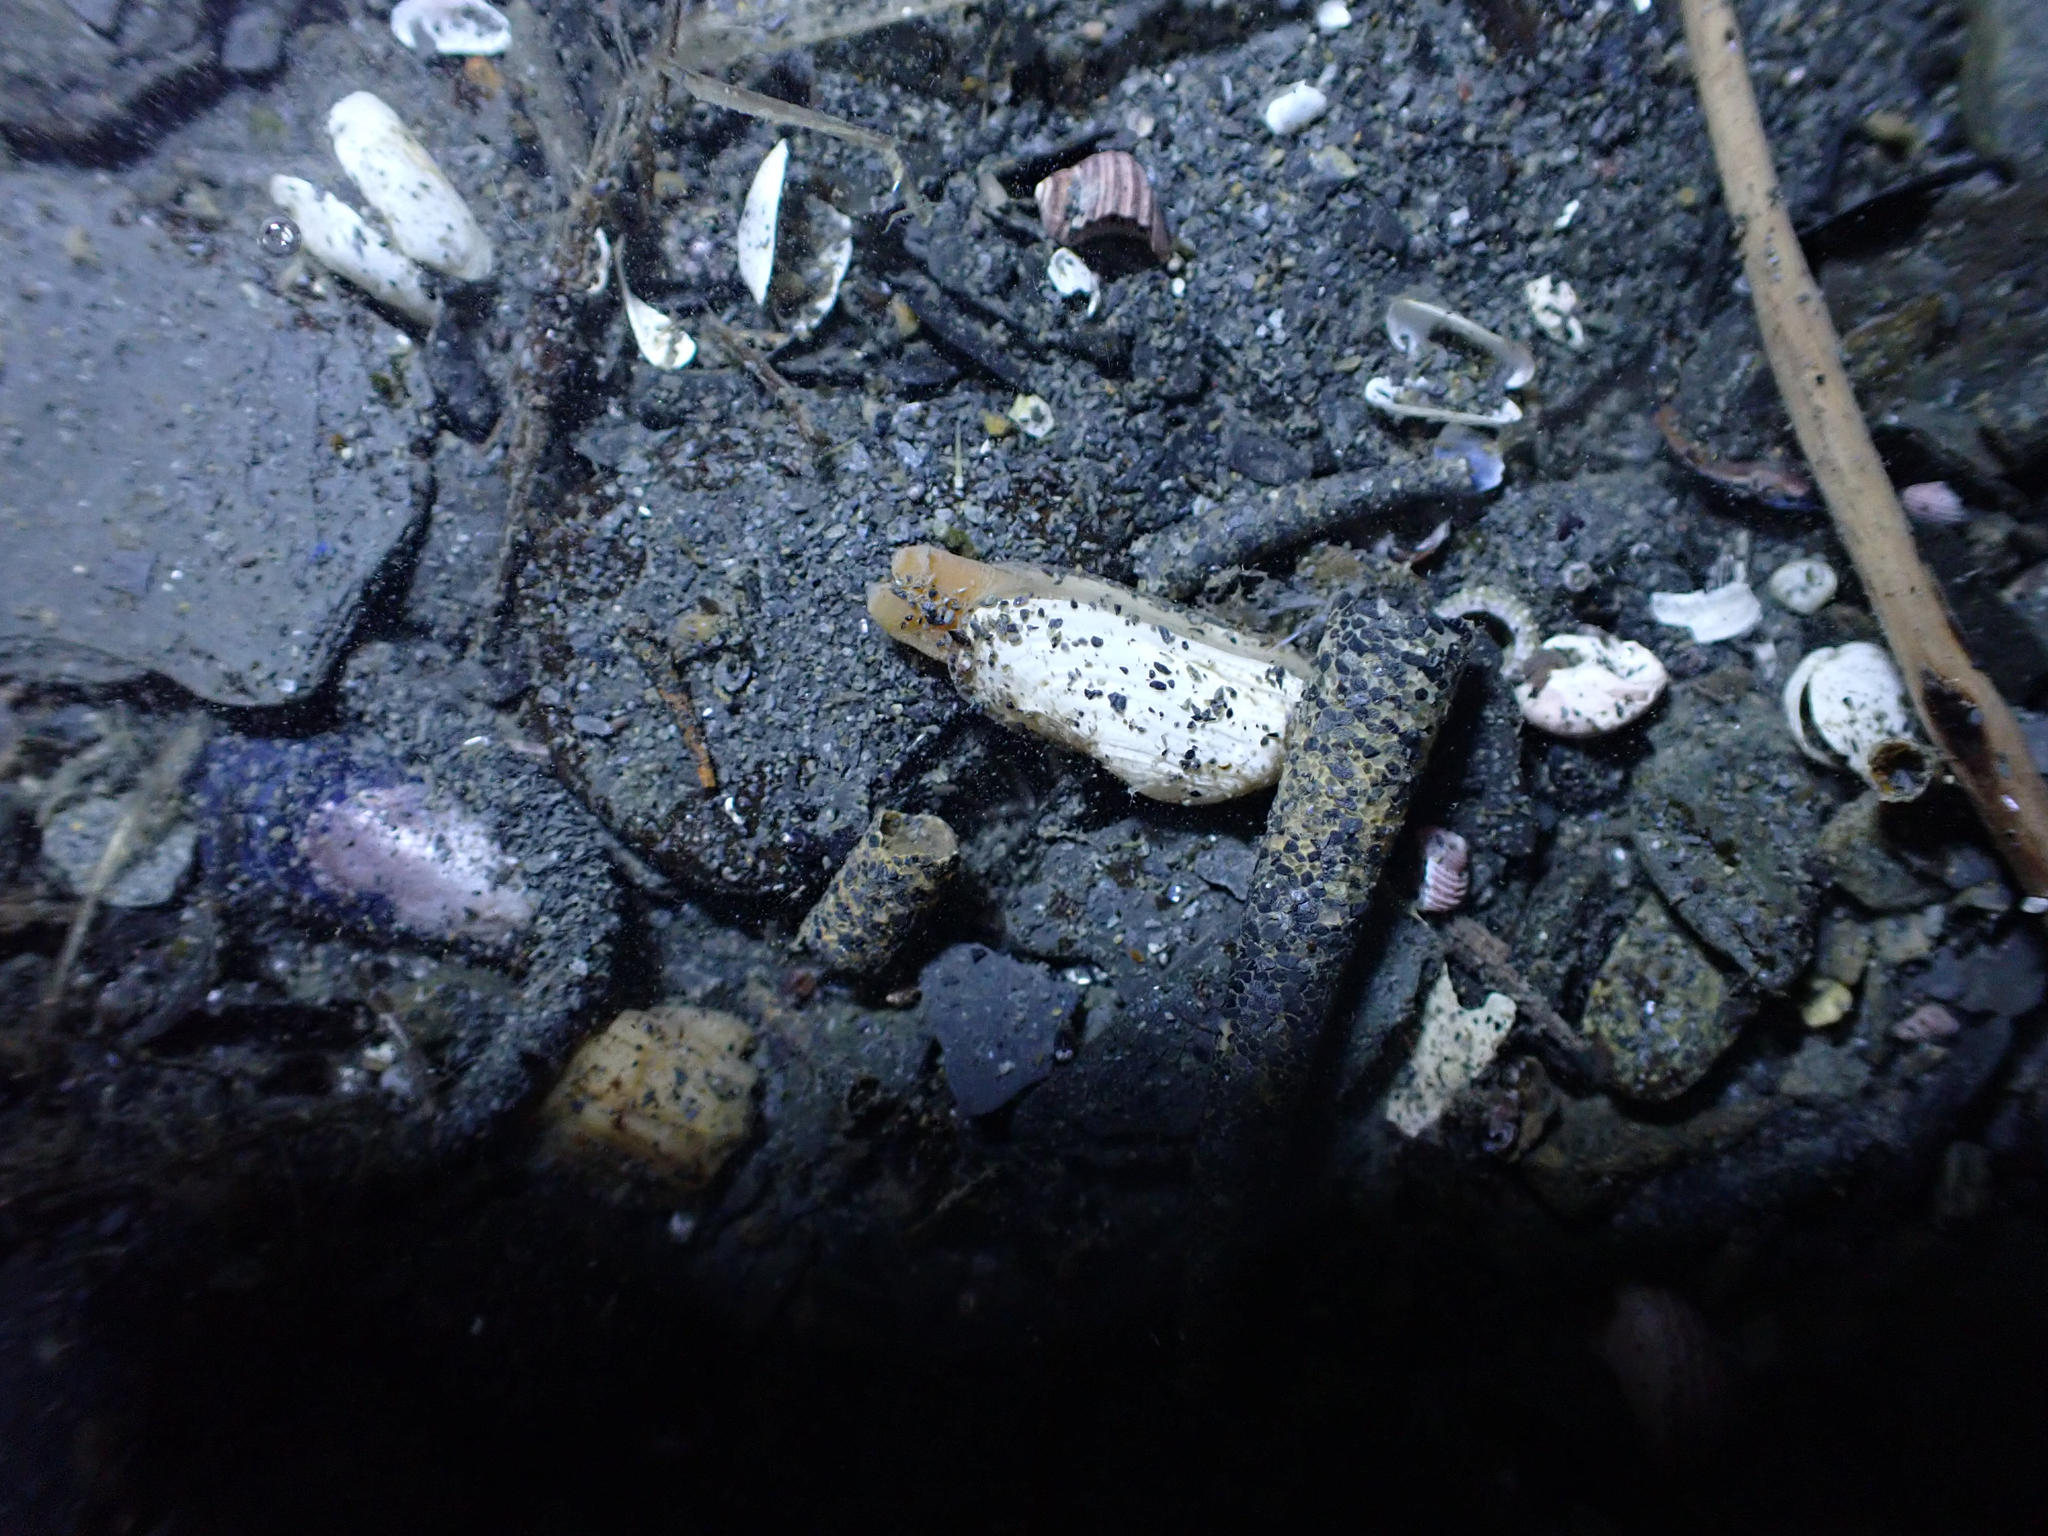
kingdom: Animalia
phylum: Mollusca
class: Bivalvia
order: Adapedonta
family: Hiatellidae
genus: Hiatella
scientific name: Hiatella arctica
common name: Arctic hiatella
